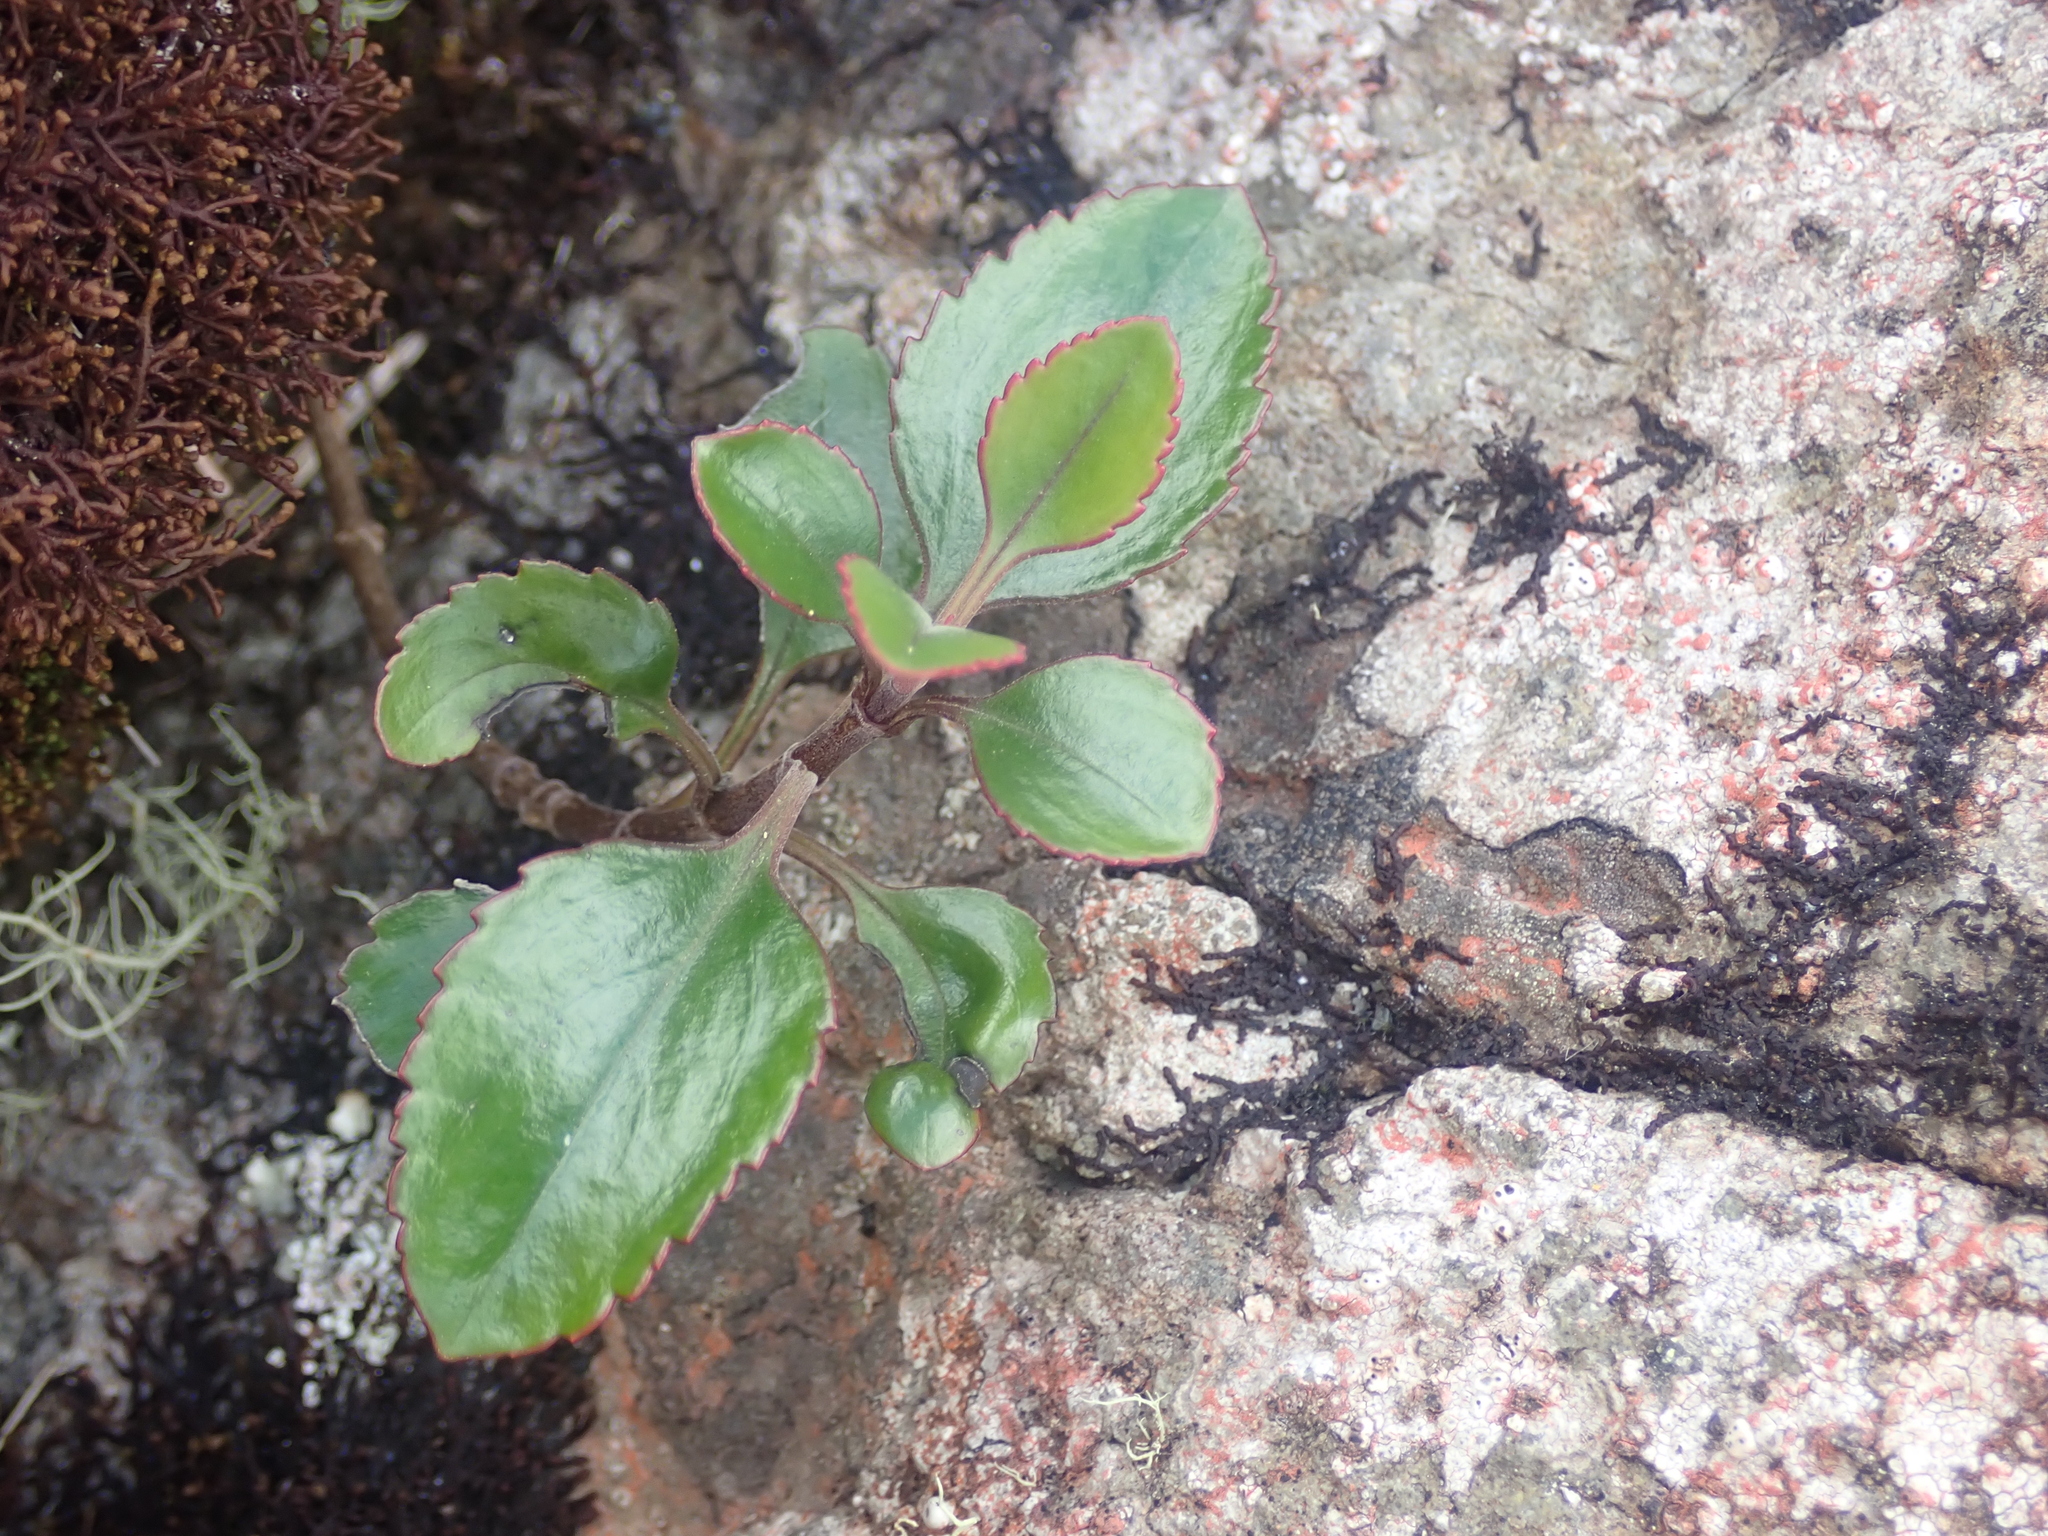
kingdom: Plantae
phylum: Tracheophyta
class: Magnoliopsida
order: Lamiales
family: Plantaginaceae
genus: Veronica
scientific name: Veronica hulkeana
